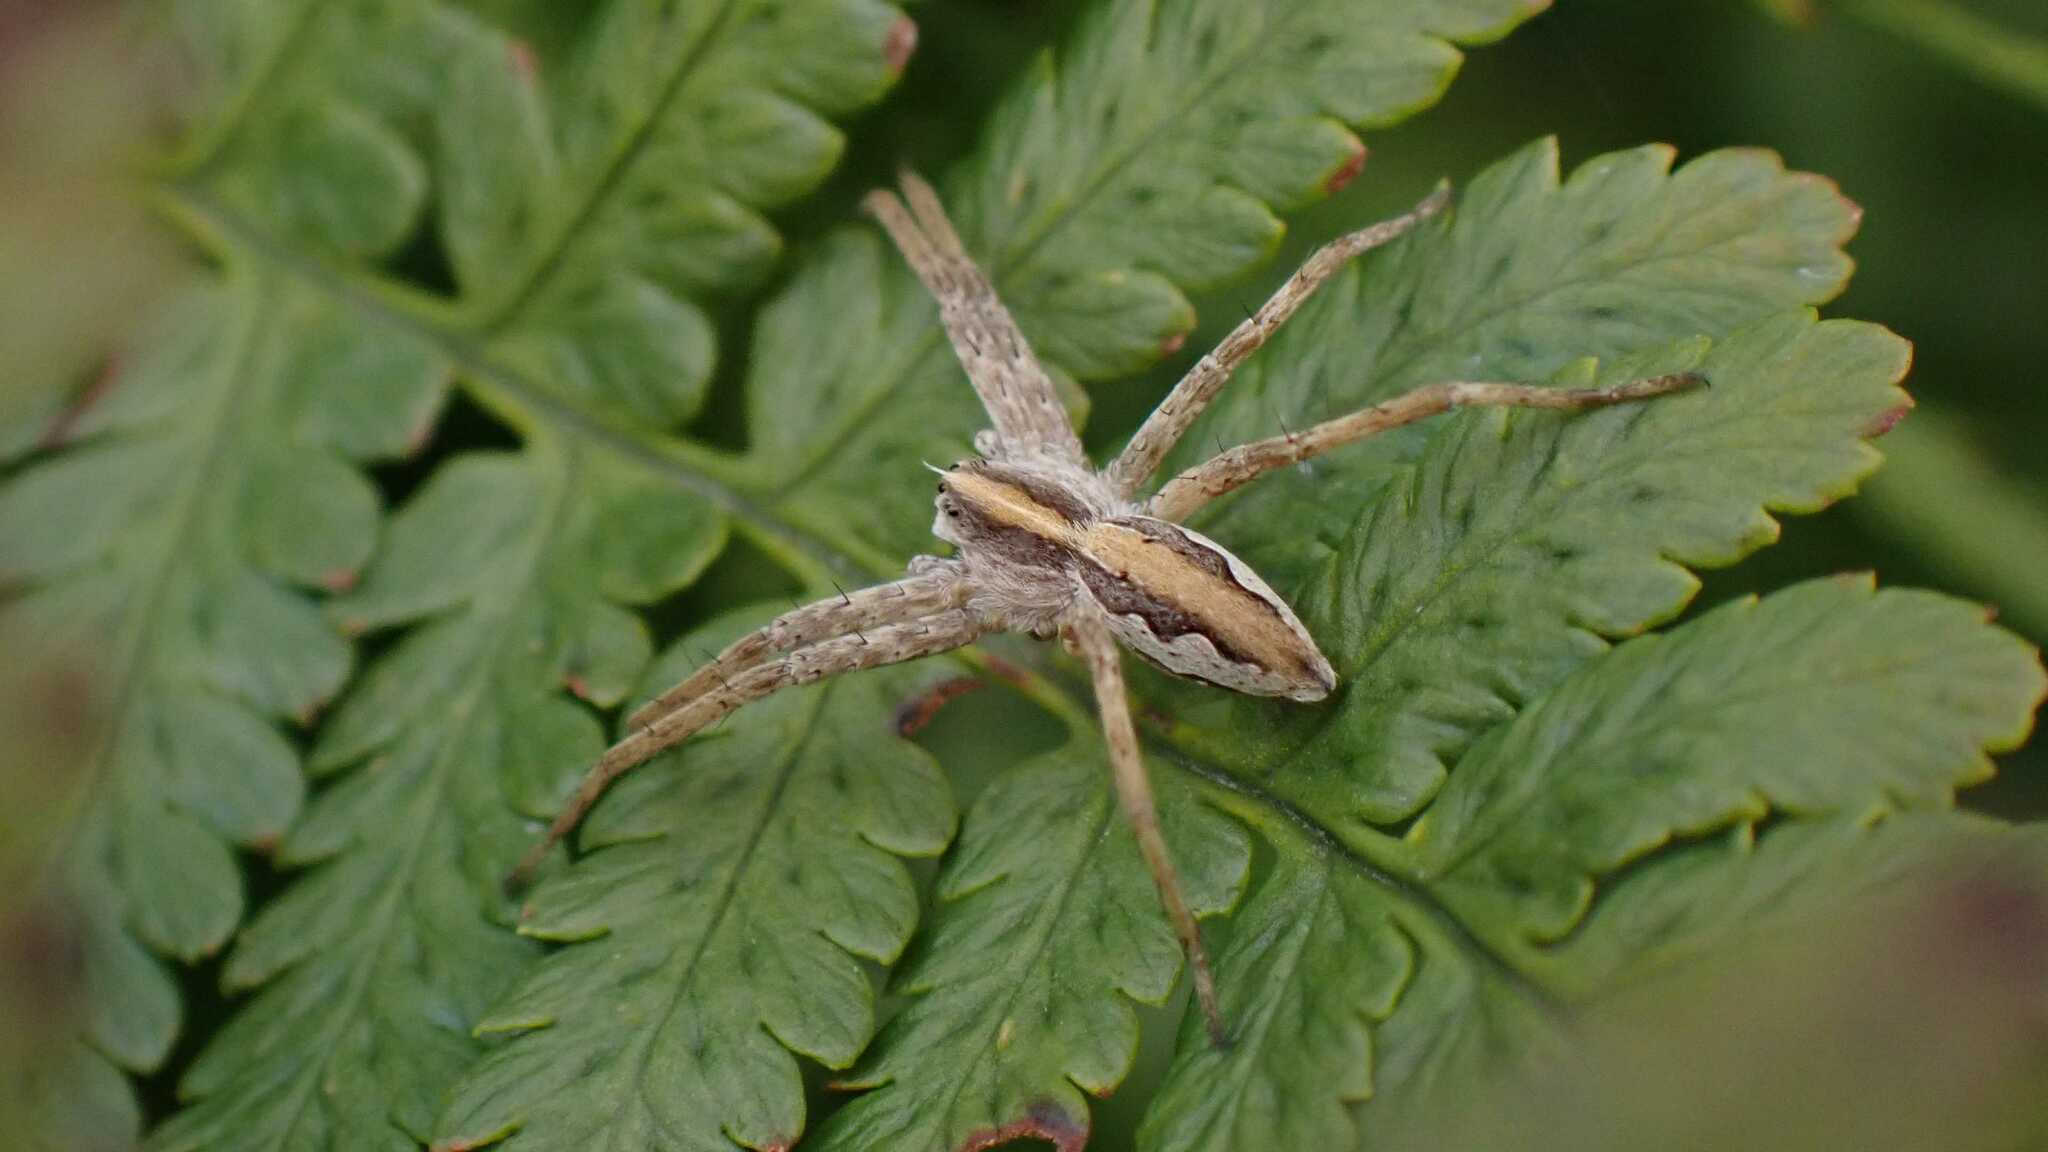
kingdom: Animalia
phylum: Arthropoda
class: Arachnida
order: Araneae
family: Pisauridae
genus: Pisaura
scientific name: Pisaura mirabilis
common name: Tent spider
